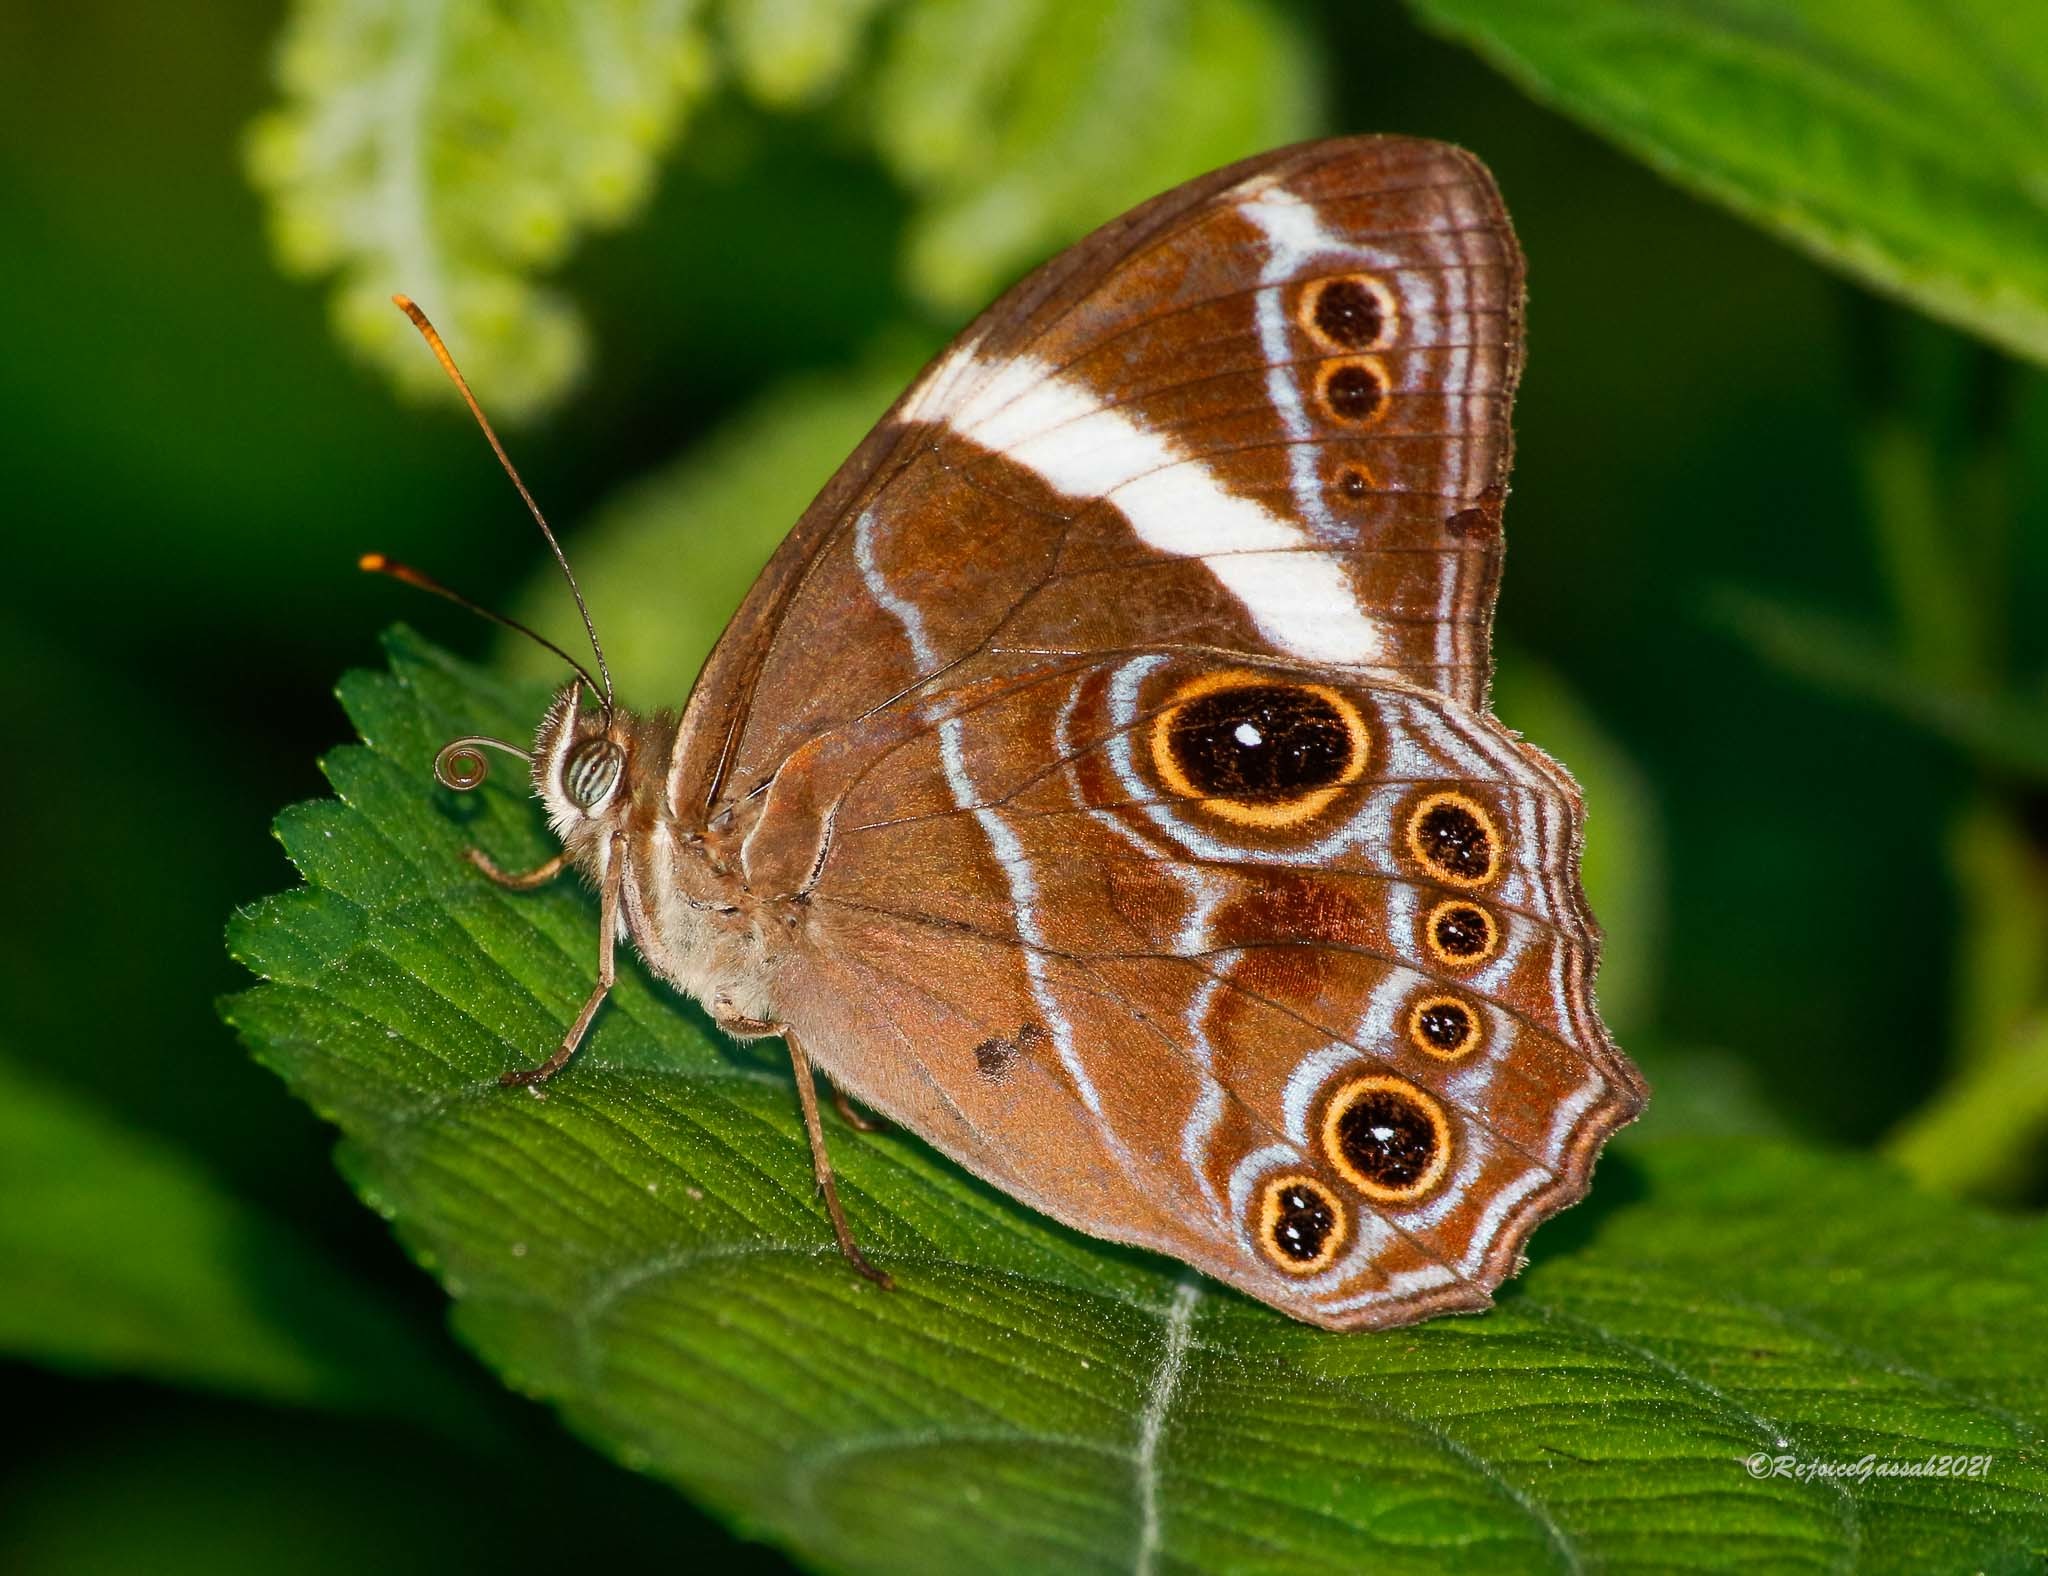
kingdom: Animalia
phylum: Arthropoda
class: Insecta
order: Lepidoptera
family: Nymphalidae
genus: Lethe
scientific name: Lethe confusa
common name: Banded treebrown
